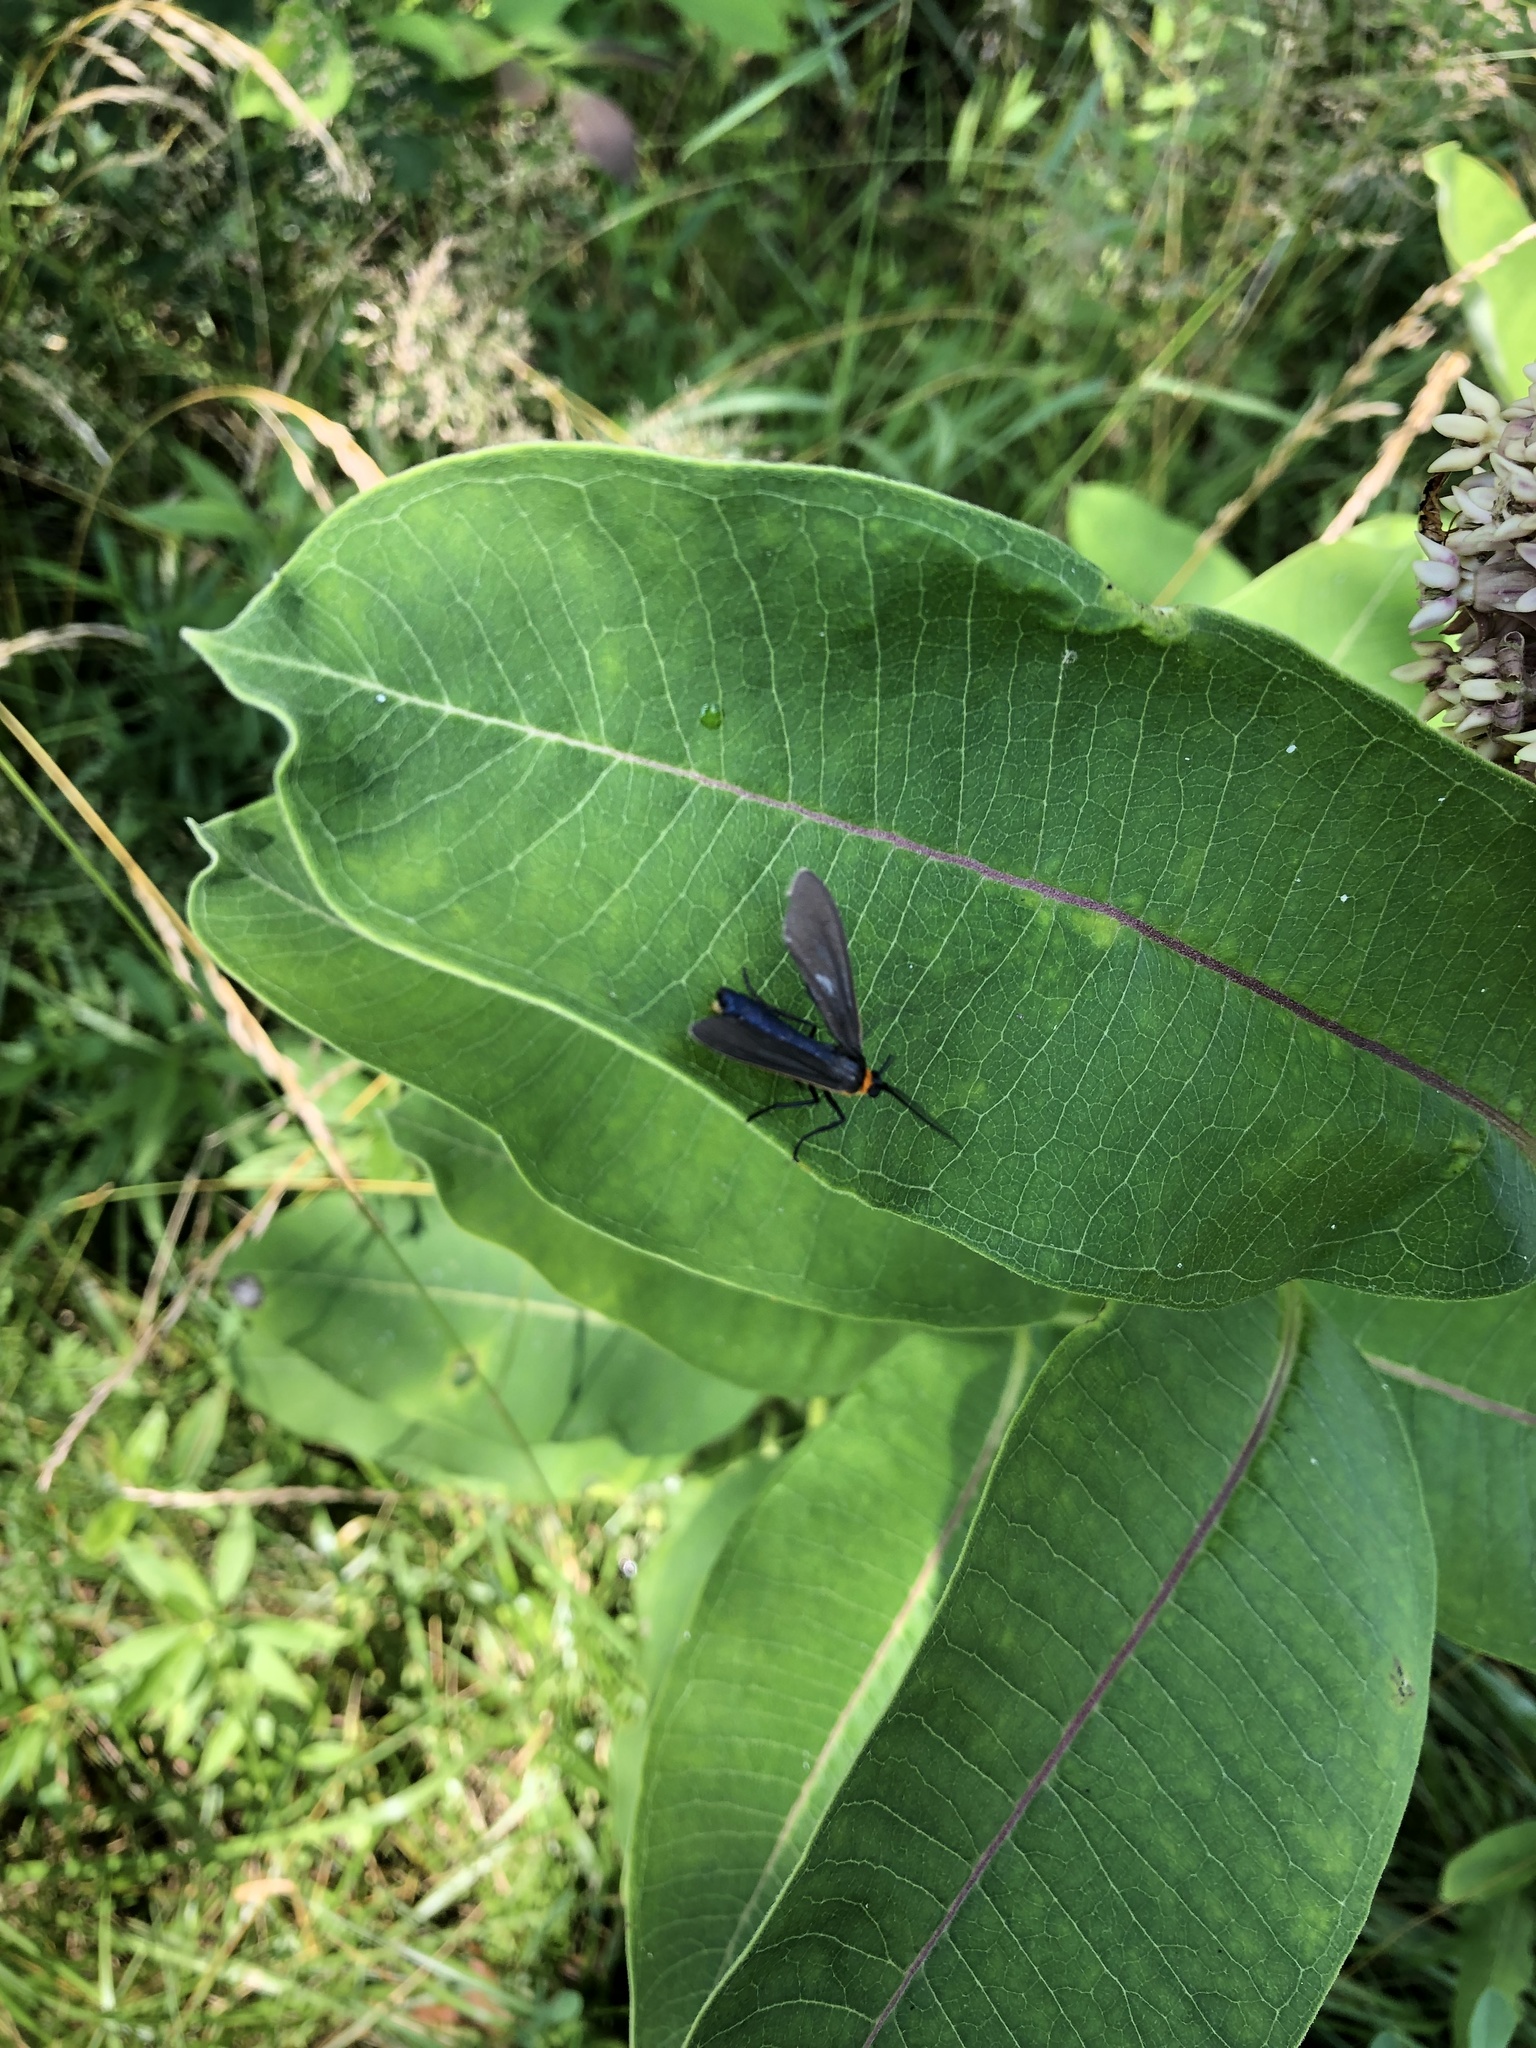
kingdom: Animalia
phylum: Arthropoda
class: Insecta
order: Lepidoptera
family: Erebidae
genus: Cisseps
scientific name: Cisseps fulvicollis
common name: Yellow-collared scape moth
